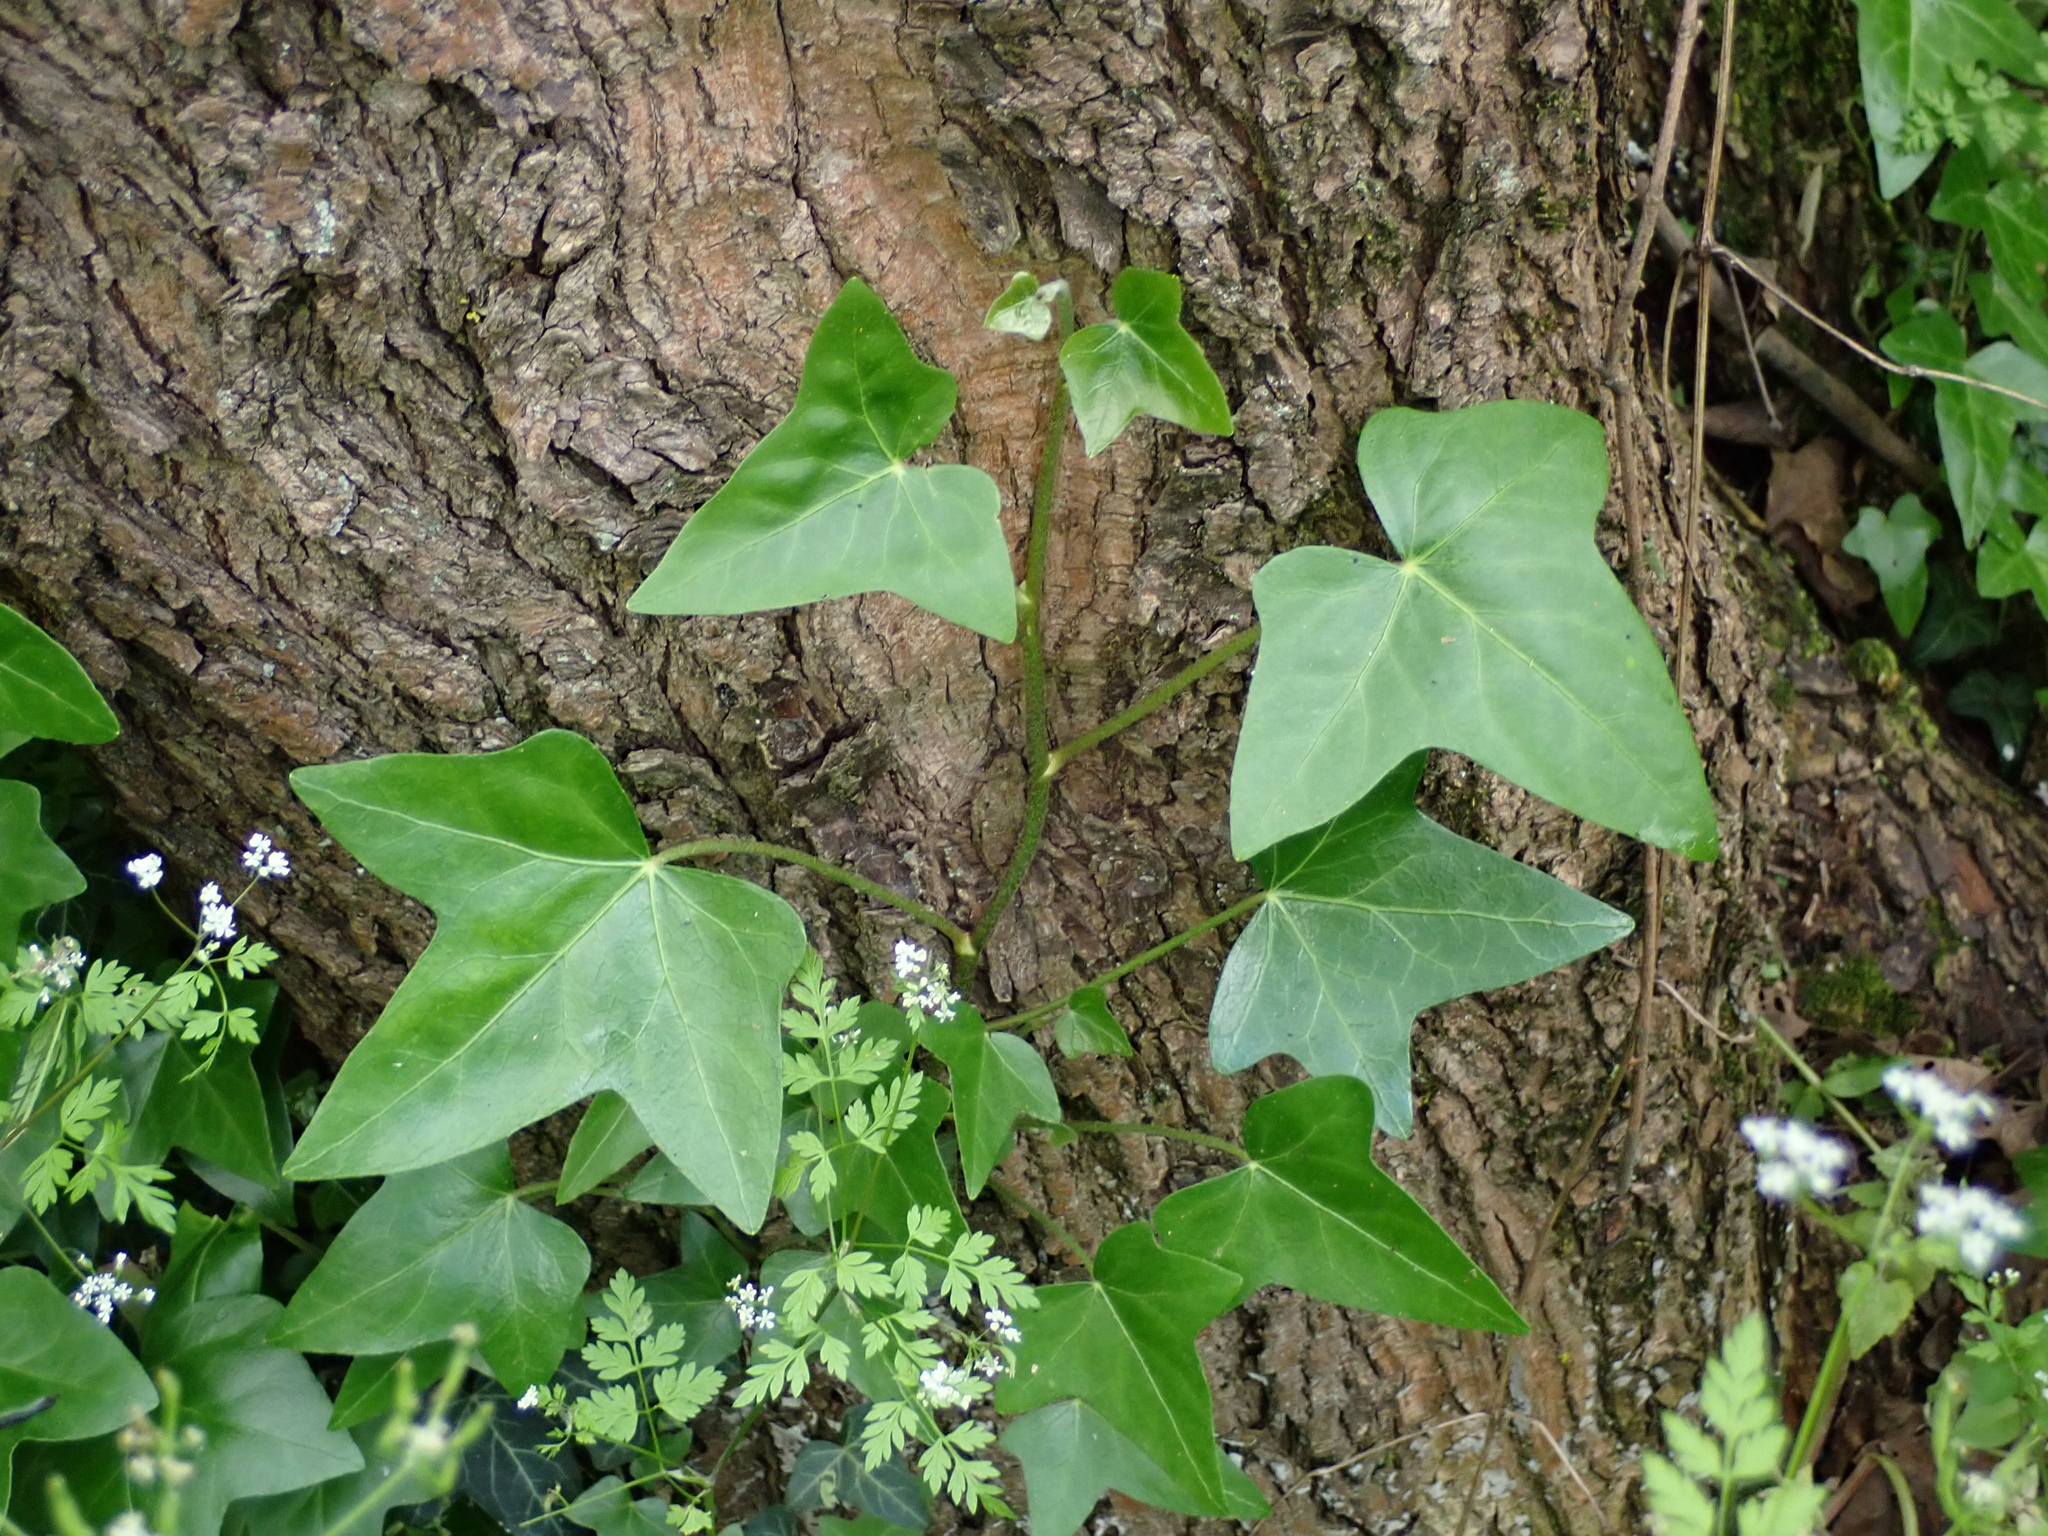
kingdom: Plantae
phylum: Tracheophyta
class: Magnoliopsida
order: Apiales
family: Araliaceae
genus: Hedera
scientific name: Hedera helix
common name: Ivy
